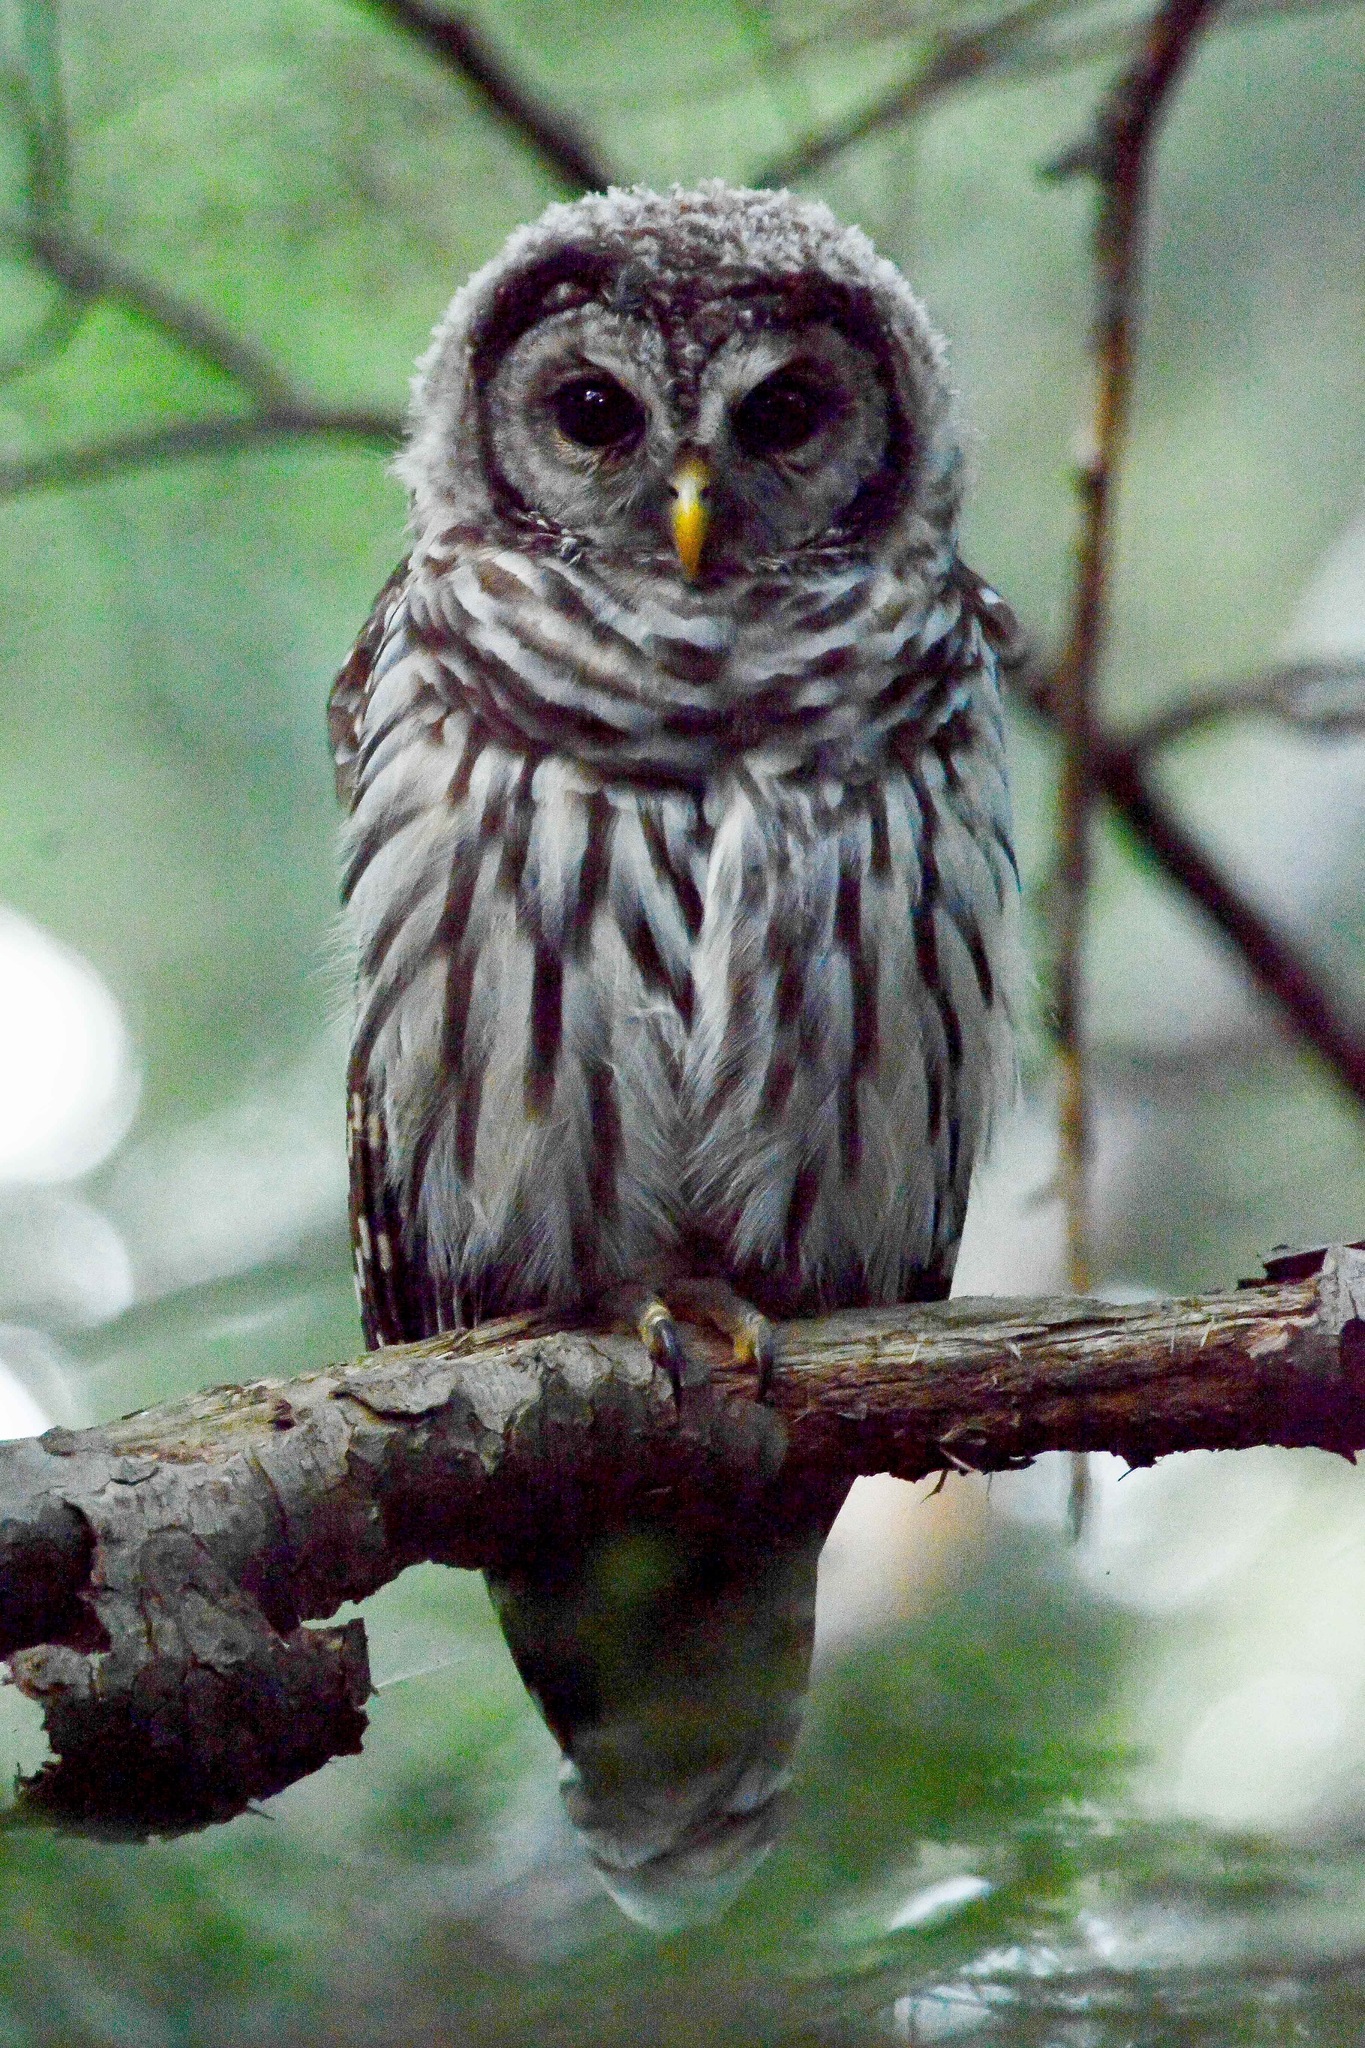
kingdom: Animalia
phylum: Chordata
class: Aves
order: Strigiformes
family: Strigidae
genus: Strix
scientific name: Strix varia
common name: Barred owl
